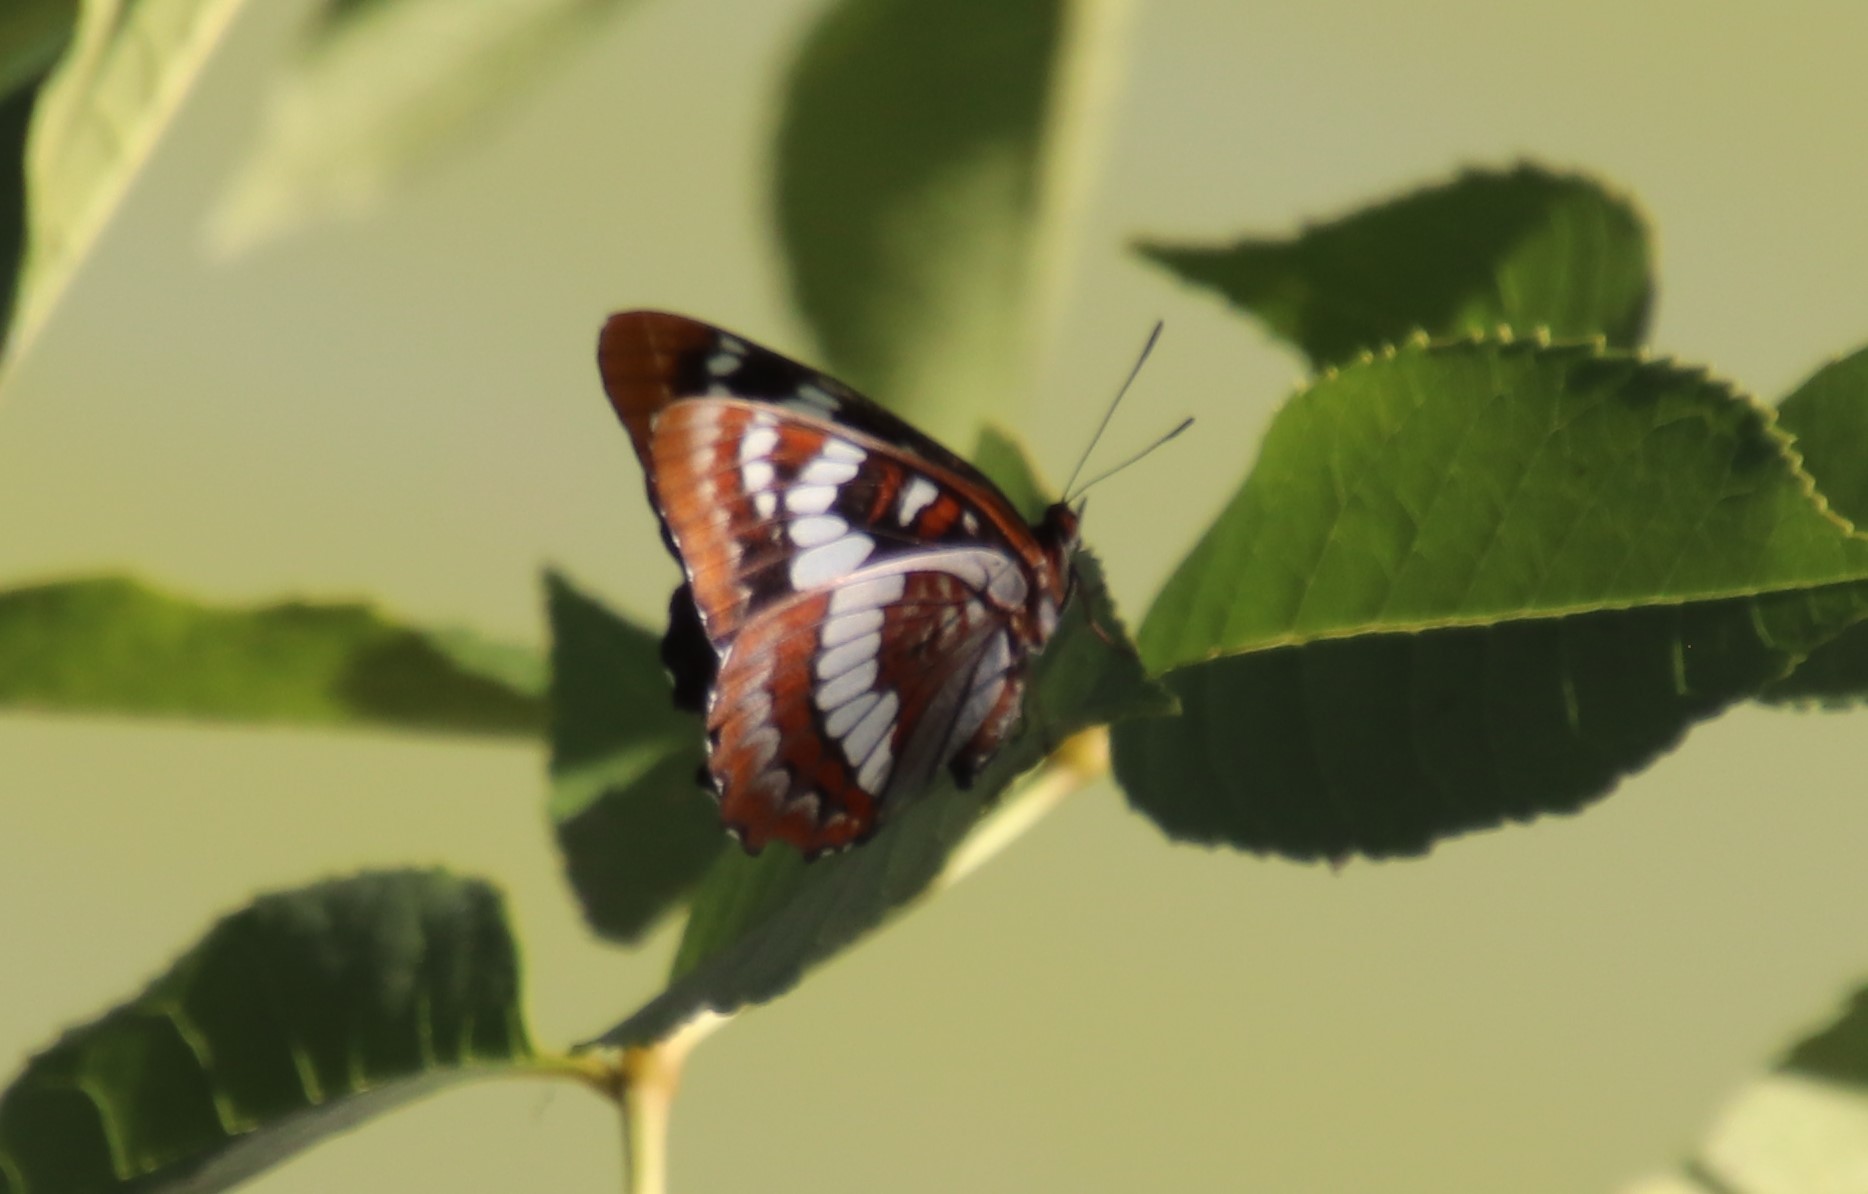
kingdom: Animalia
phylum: Arthropoda
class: Insecta
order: Lepidoptera
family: Nymphalidae
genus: Limenitis
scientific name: Limenitis lorquini
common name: Lorquin's admiral
